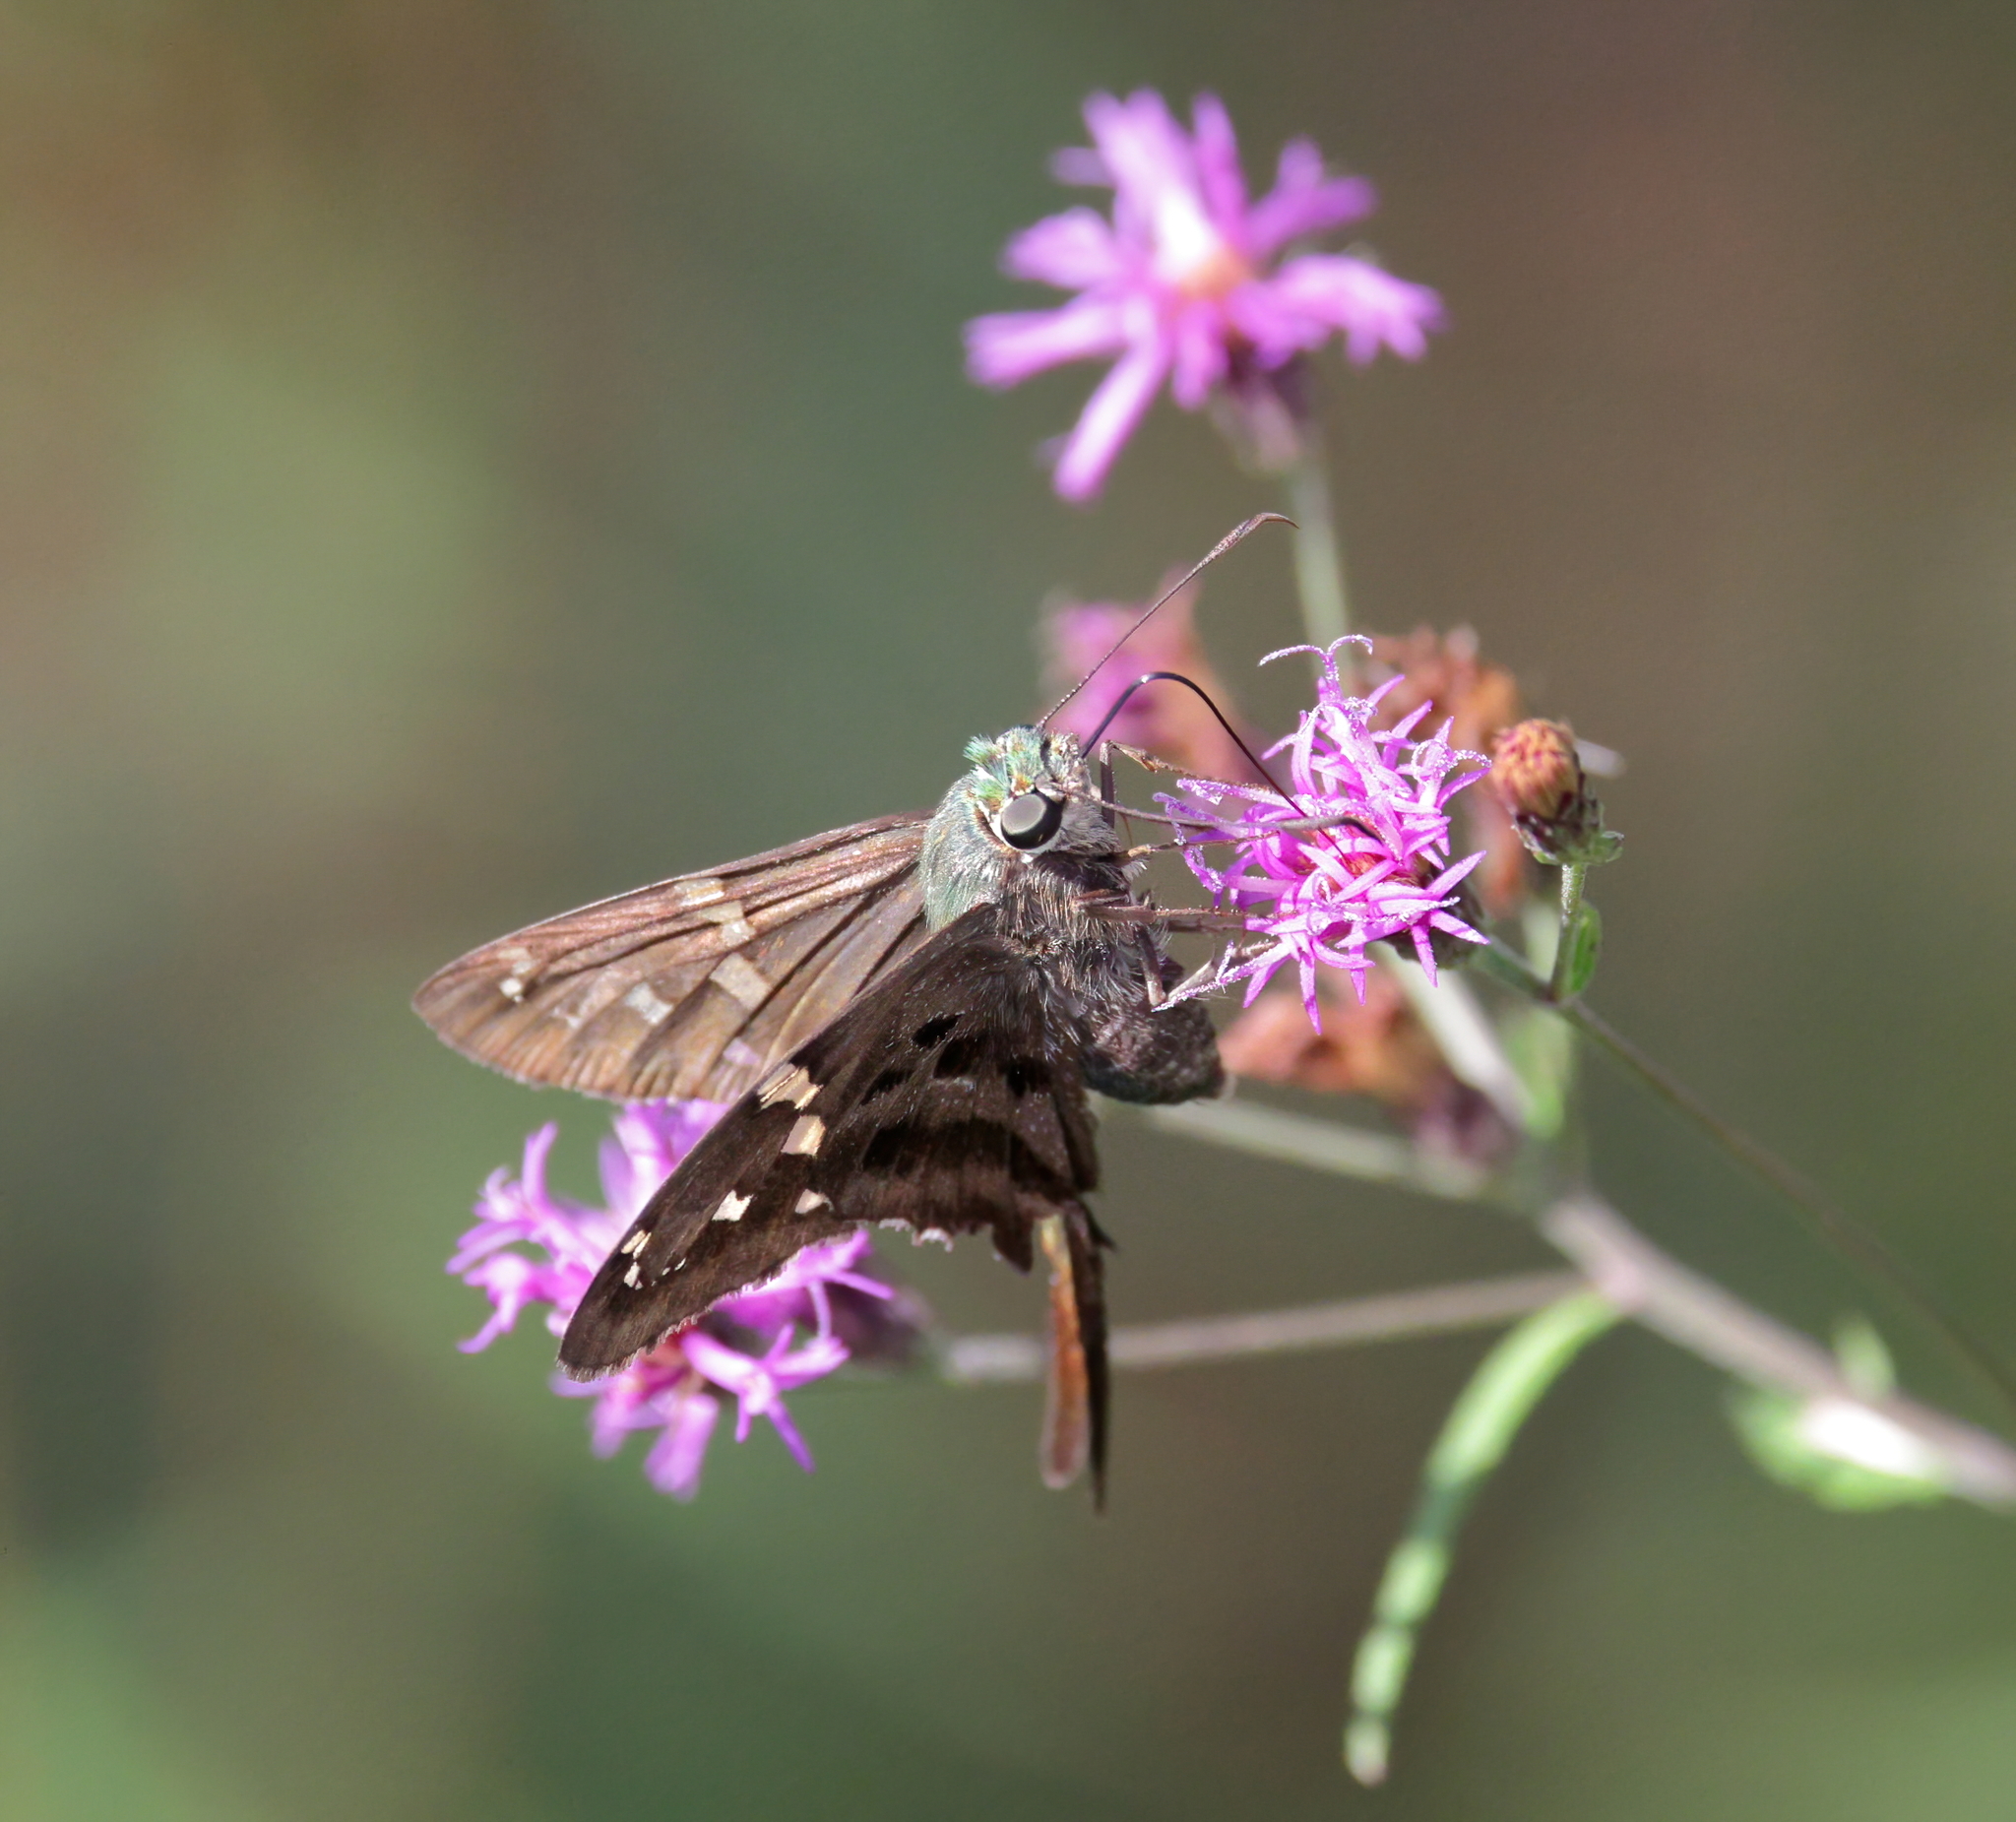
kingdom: Animalia
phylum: Arthropoda
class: Insecta
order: Lepidoptera
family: Hesperiidae
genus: Urbanus
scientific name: Urbanus proteus
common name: Long-tailed skipper
